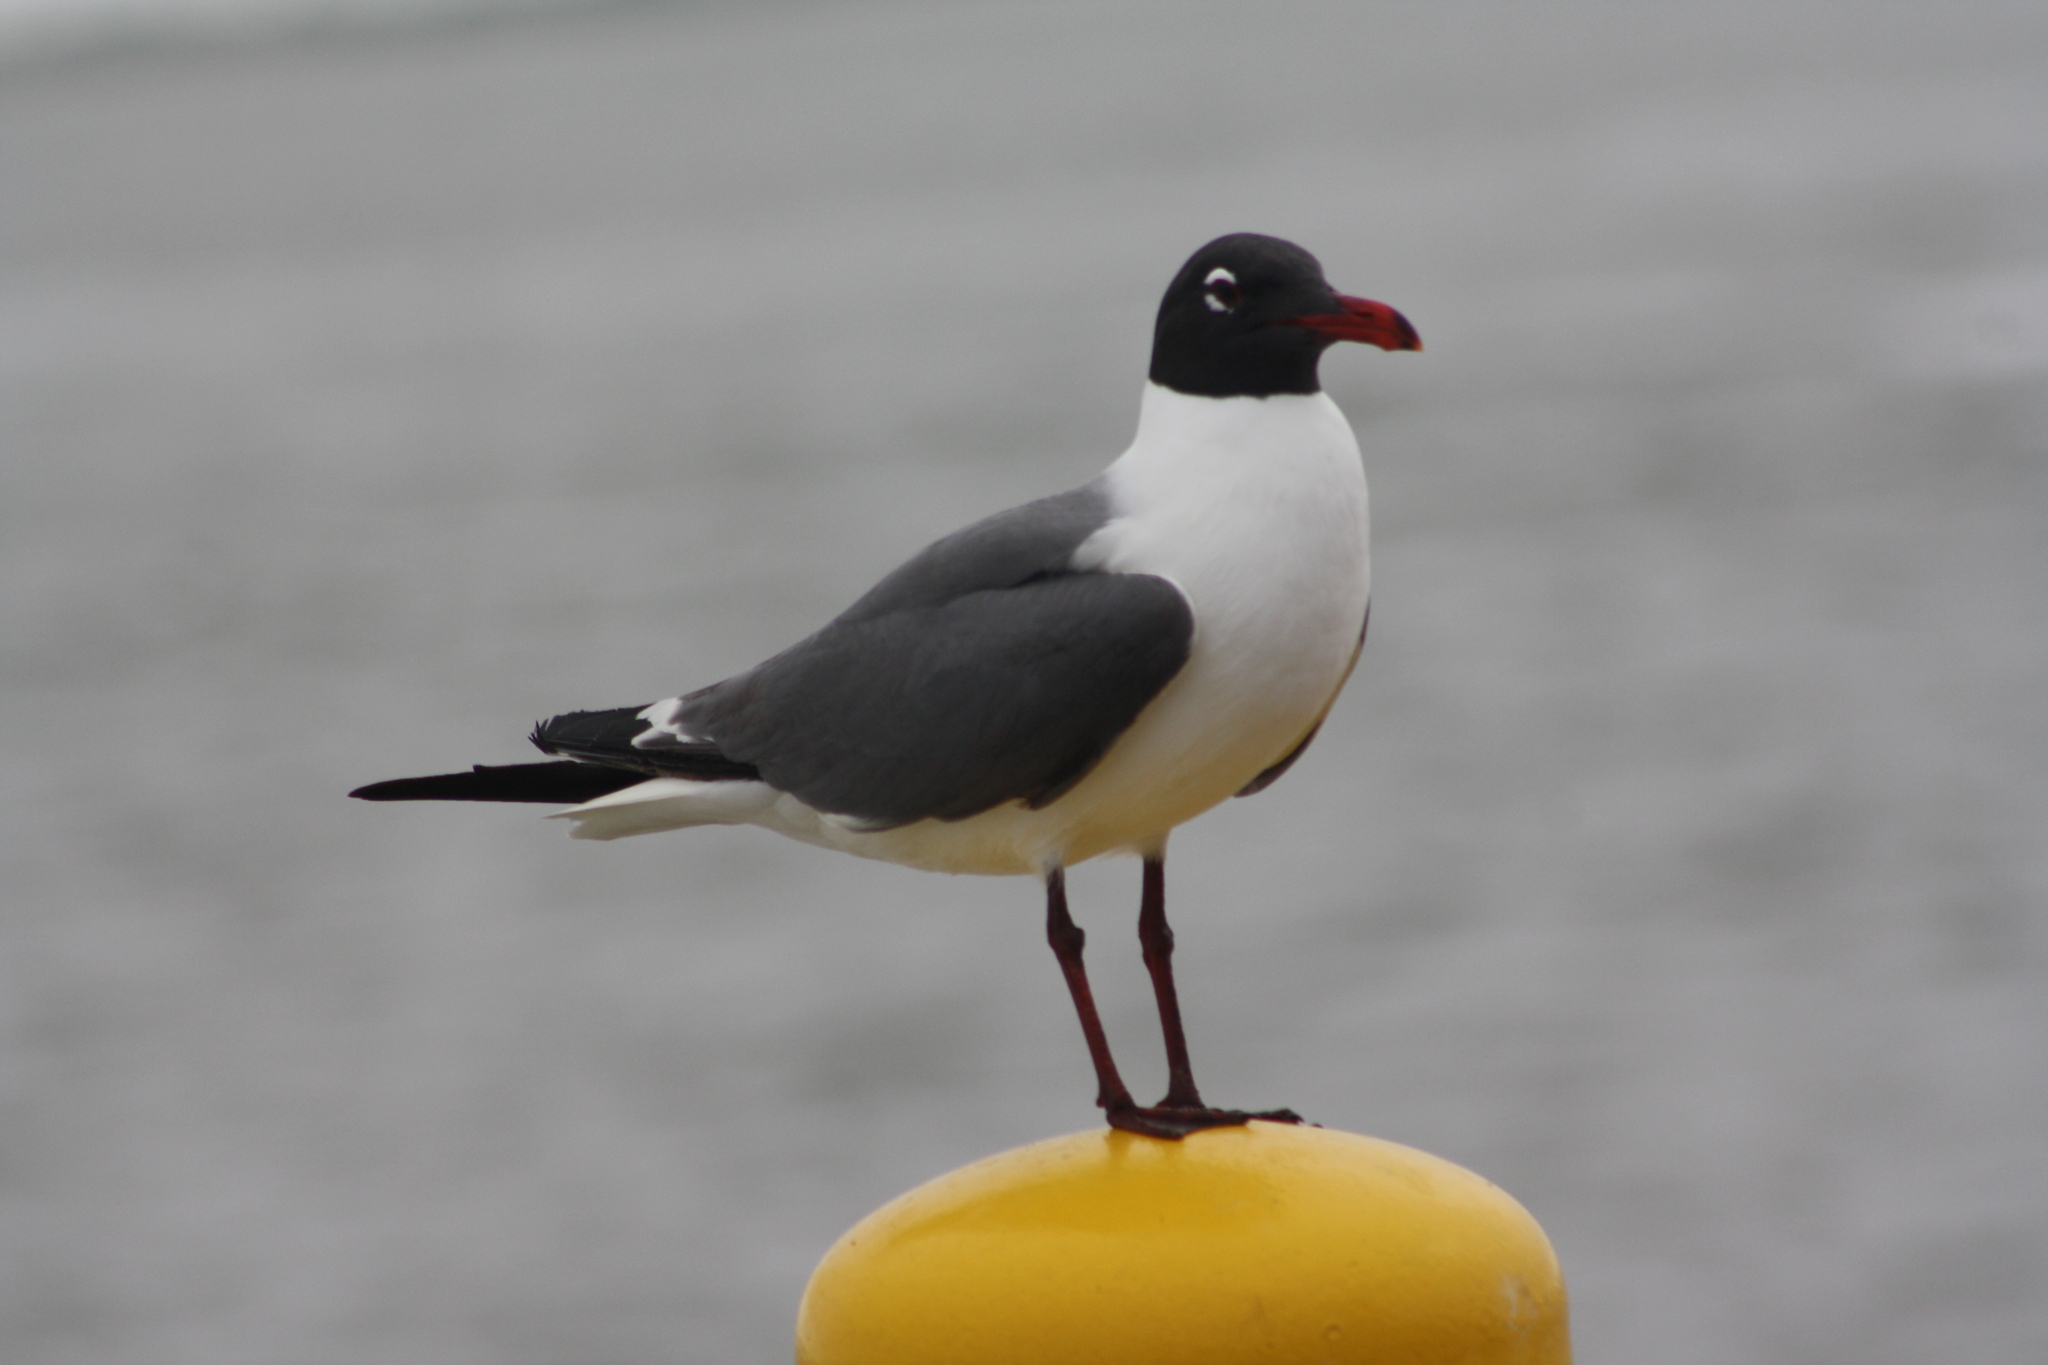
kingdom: Animalia
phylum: Chordata
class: Aves
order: Charadriiformes
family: Laridae
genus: Leucophaeus
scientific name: Leucophaeus atricilla
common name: Laughing gull
